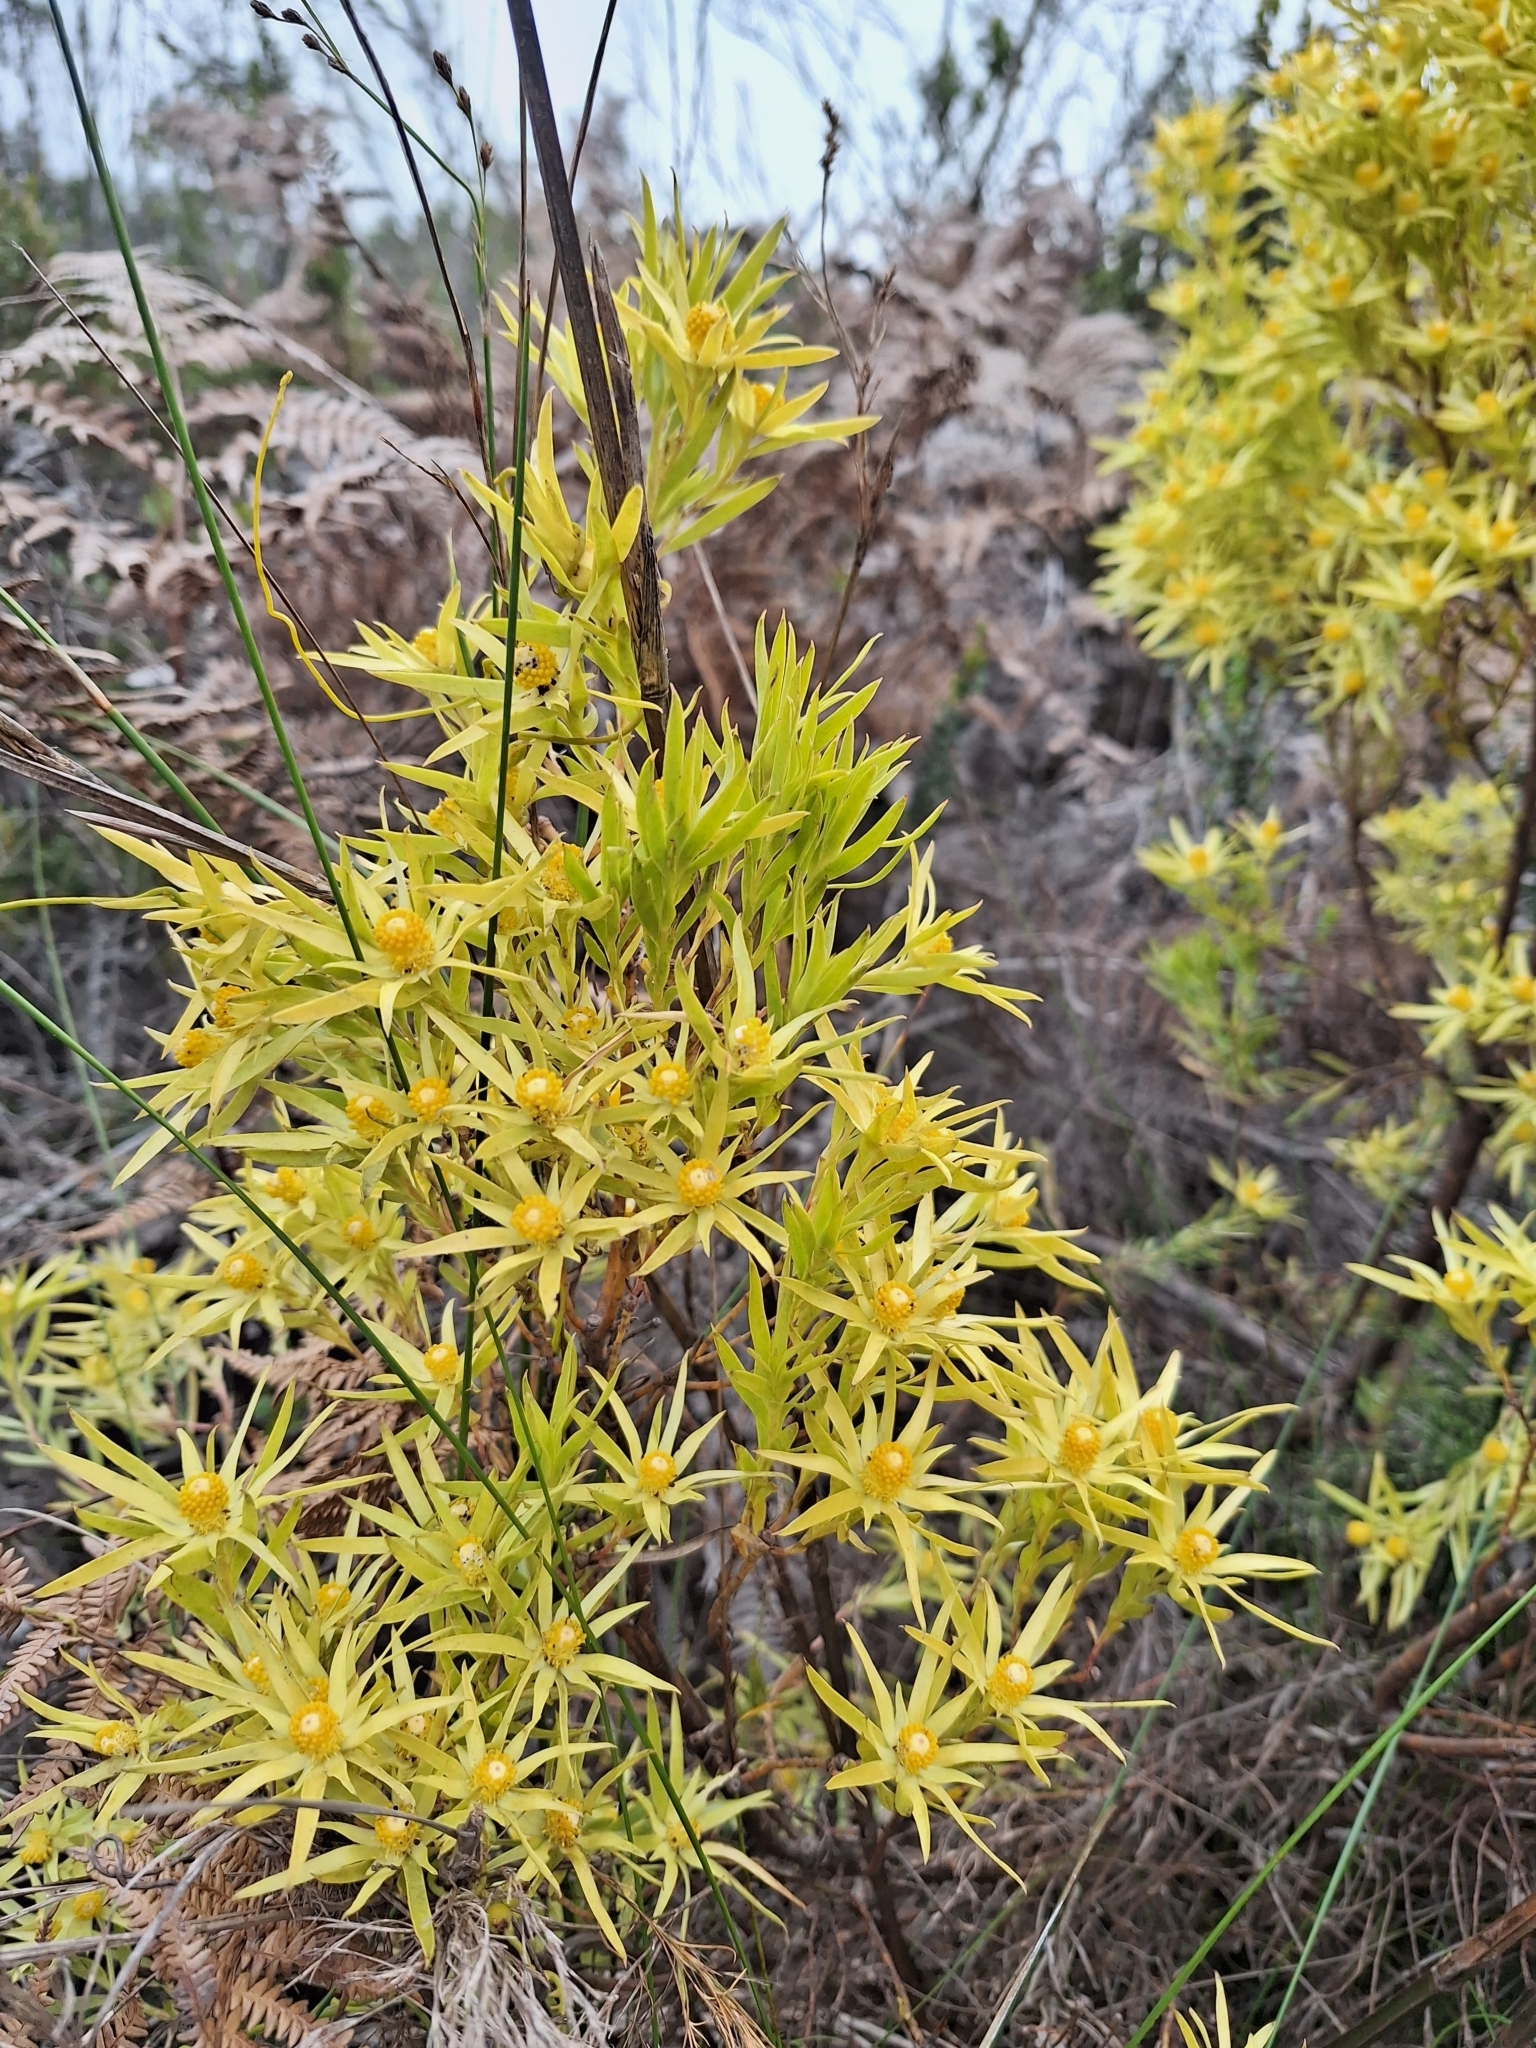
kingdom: Plantae
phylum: Tracheophyta
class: Magnoliopsida
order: Proteales
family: Proteaceae
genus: Leucadendron
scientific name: Leucadendron xanthoconus
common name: Sickle-leaf conebush
